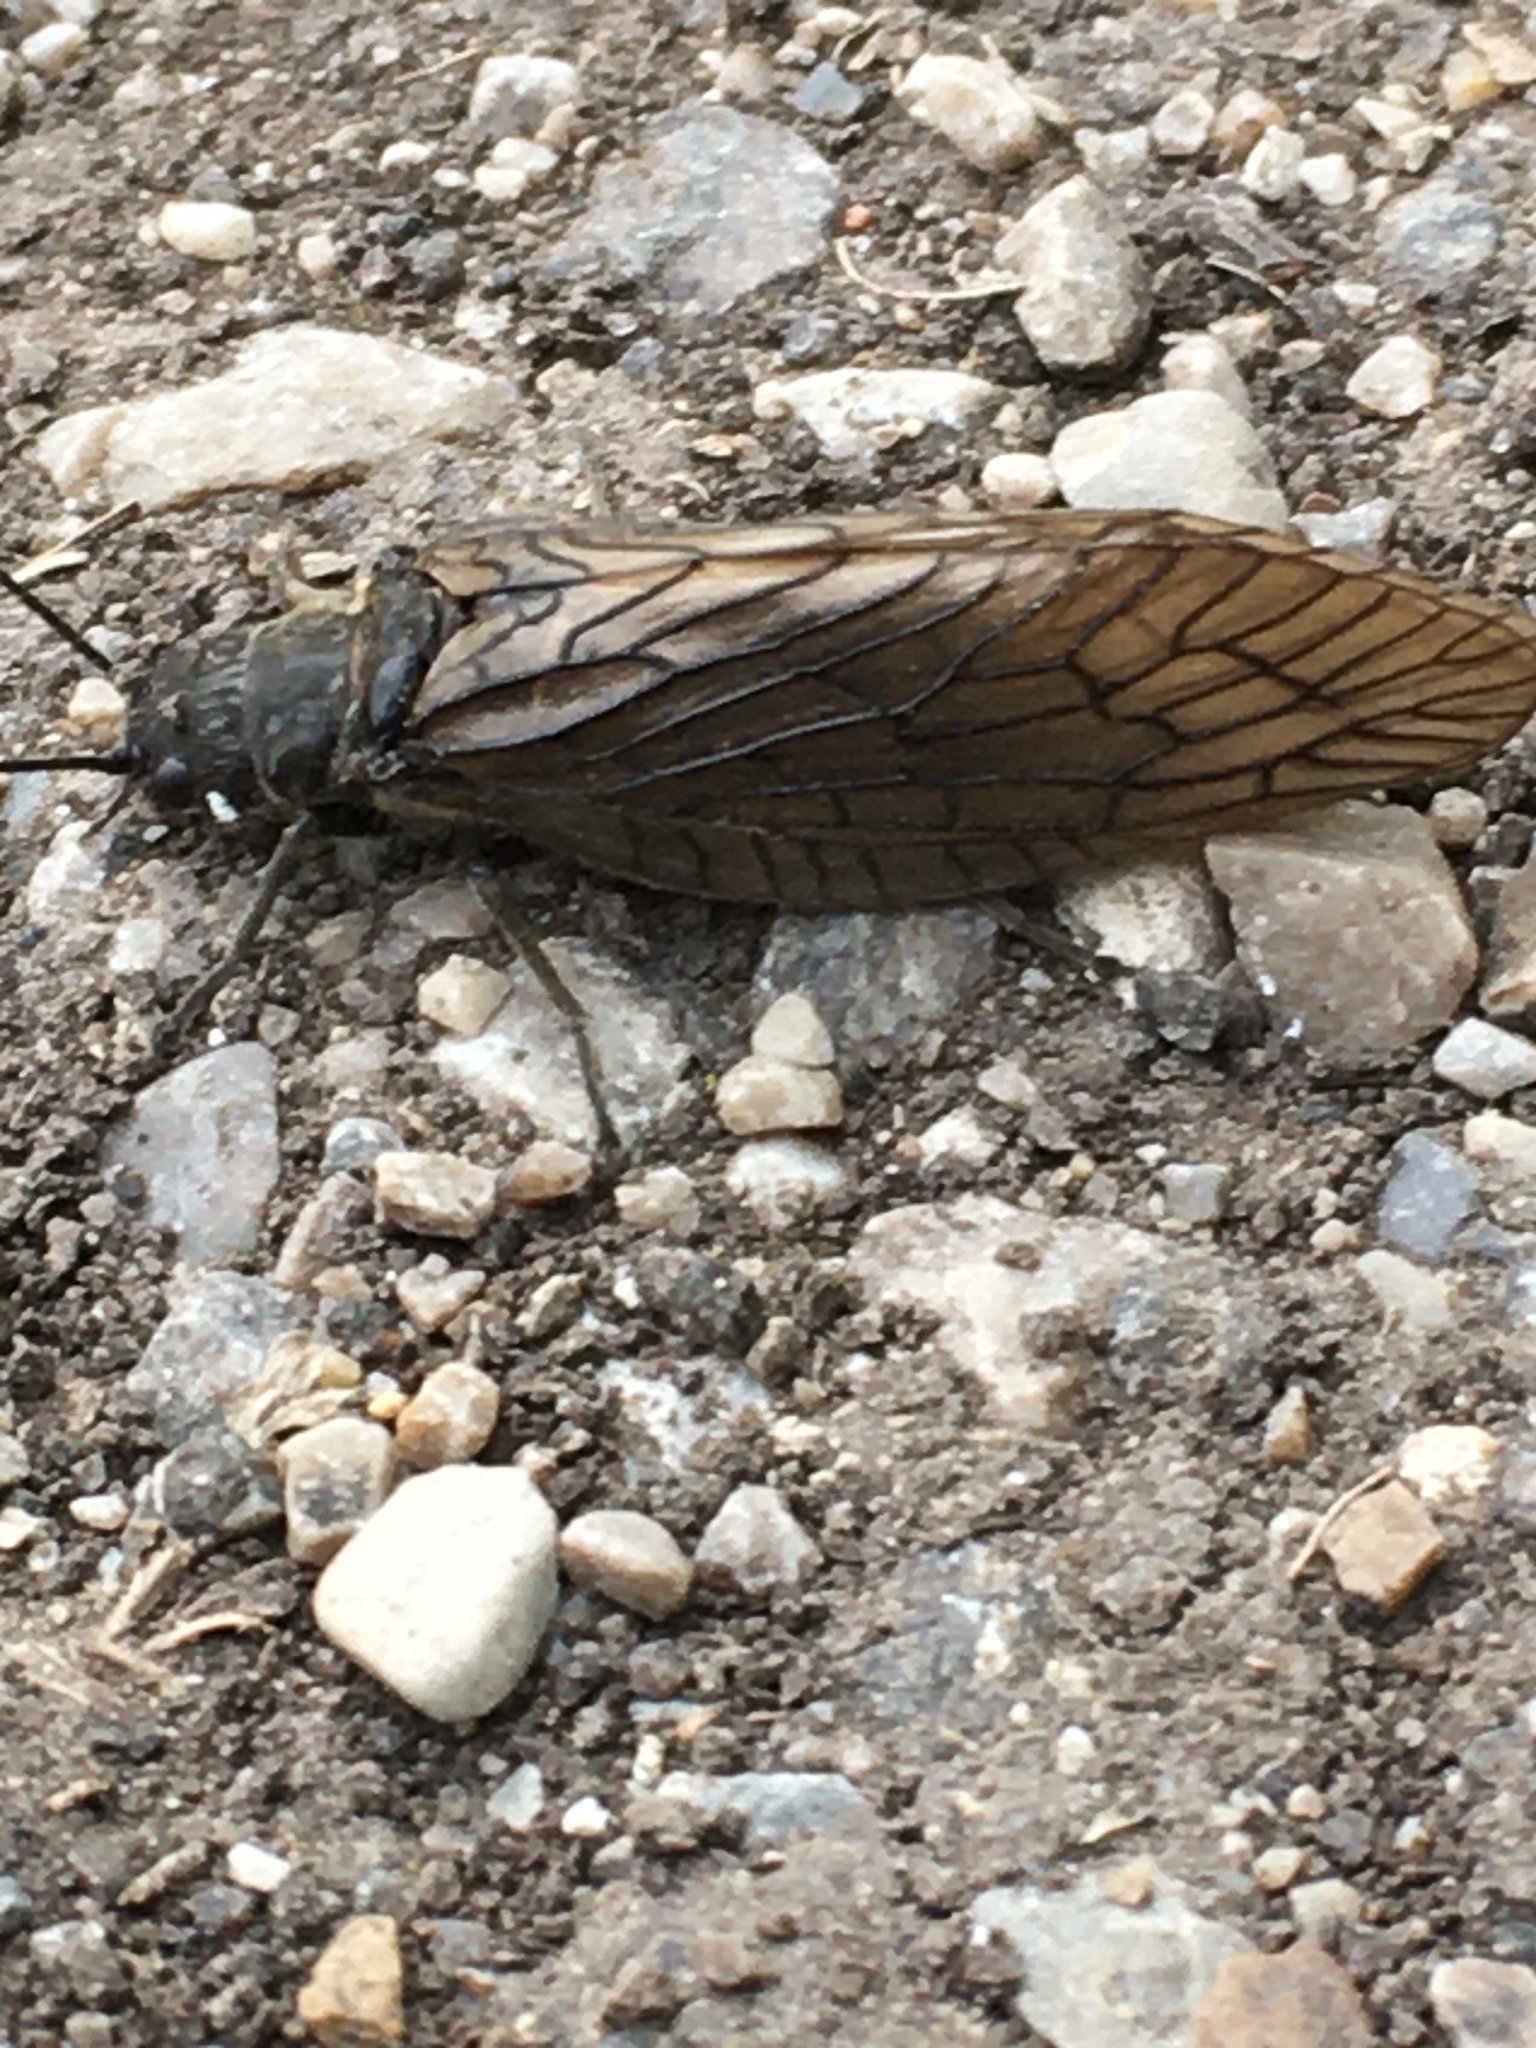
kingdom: Animalia
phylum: Arthropoda
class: Insecta
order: Megaloptera
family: Sialidae
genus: Sialis
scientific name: Sialis
